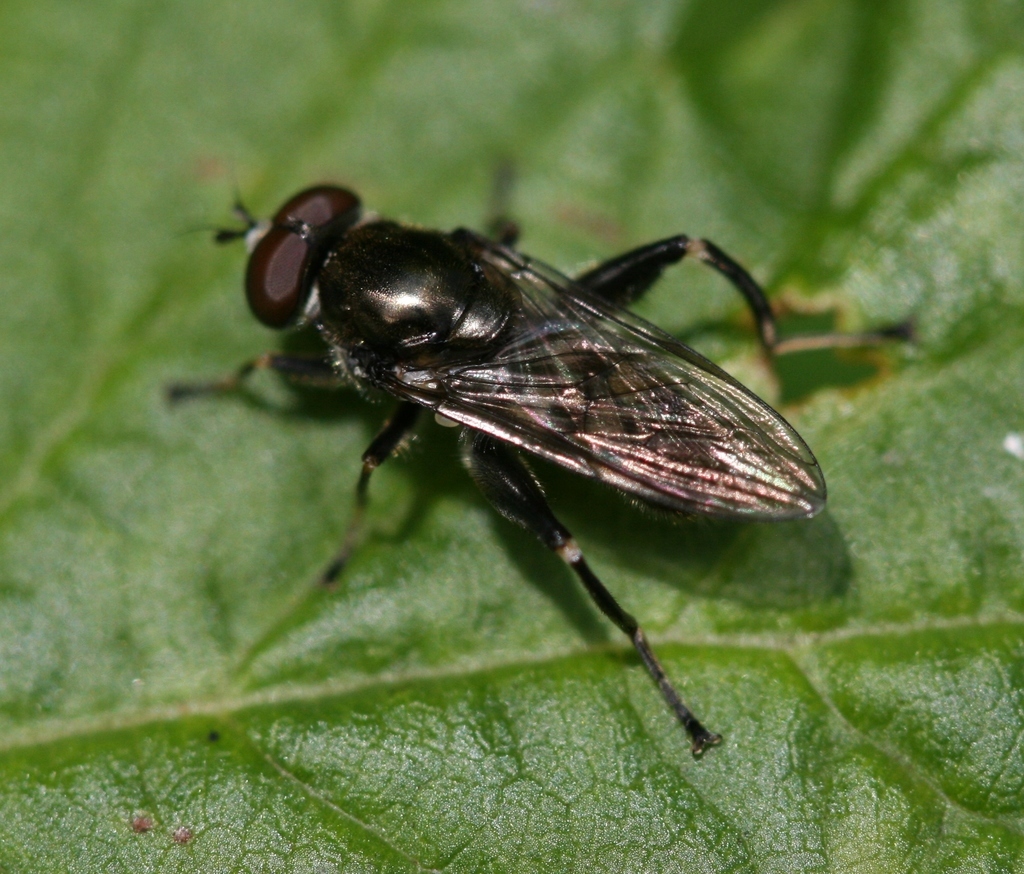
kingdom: Animalia
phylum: Arthropoda
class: Insecta
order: Diptera
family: Syrphidae
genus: Chalcosyrphus
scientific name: Chalcosyrphus nemorum
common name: Dusky-banded forest fly
